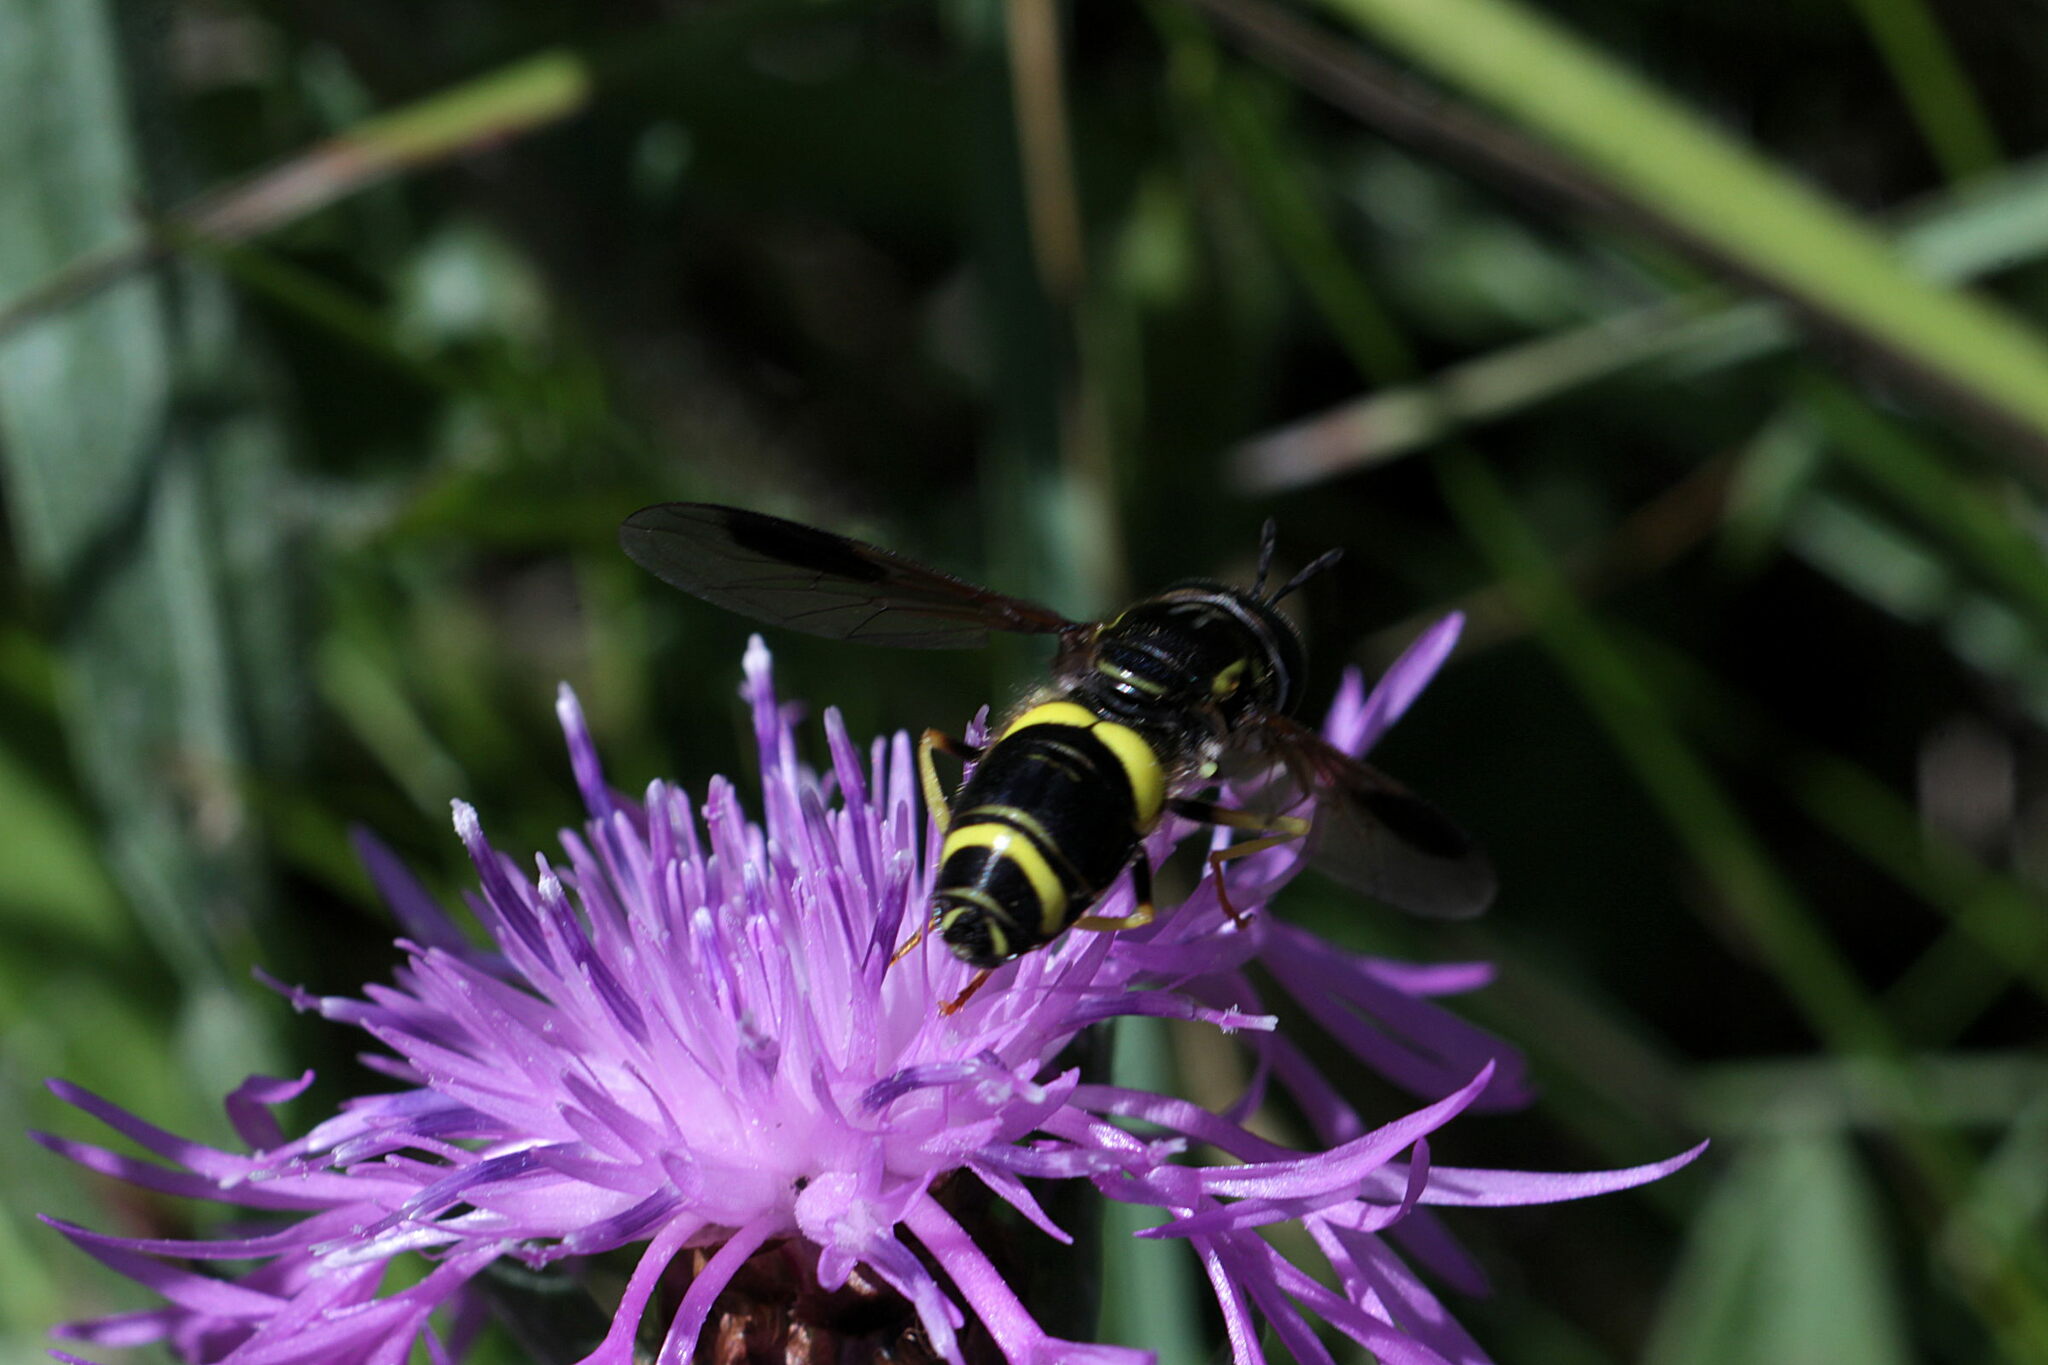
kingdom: Animalia
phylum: Arthropoda
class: Insecta
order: Diptera
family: Syrphidae
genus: Chrysotoxum
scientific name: Chrysotoxum bicincta
